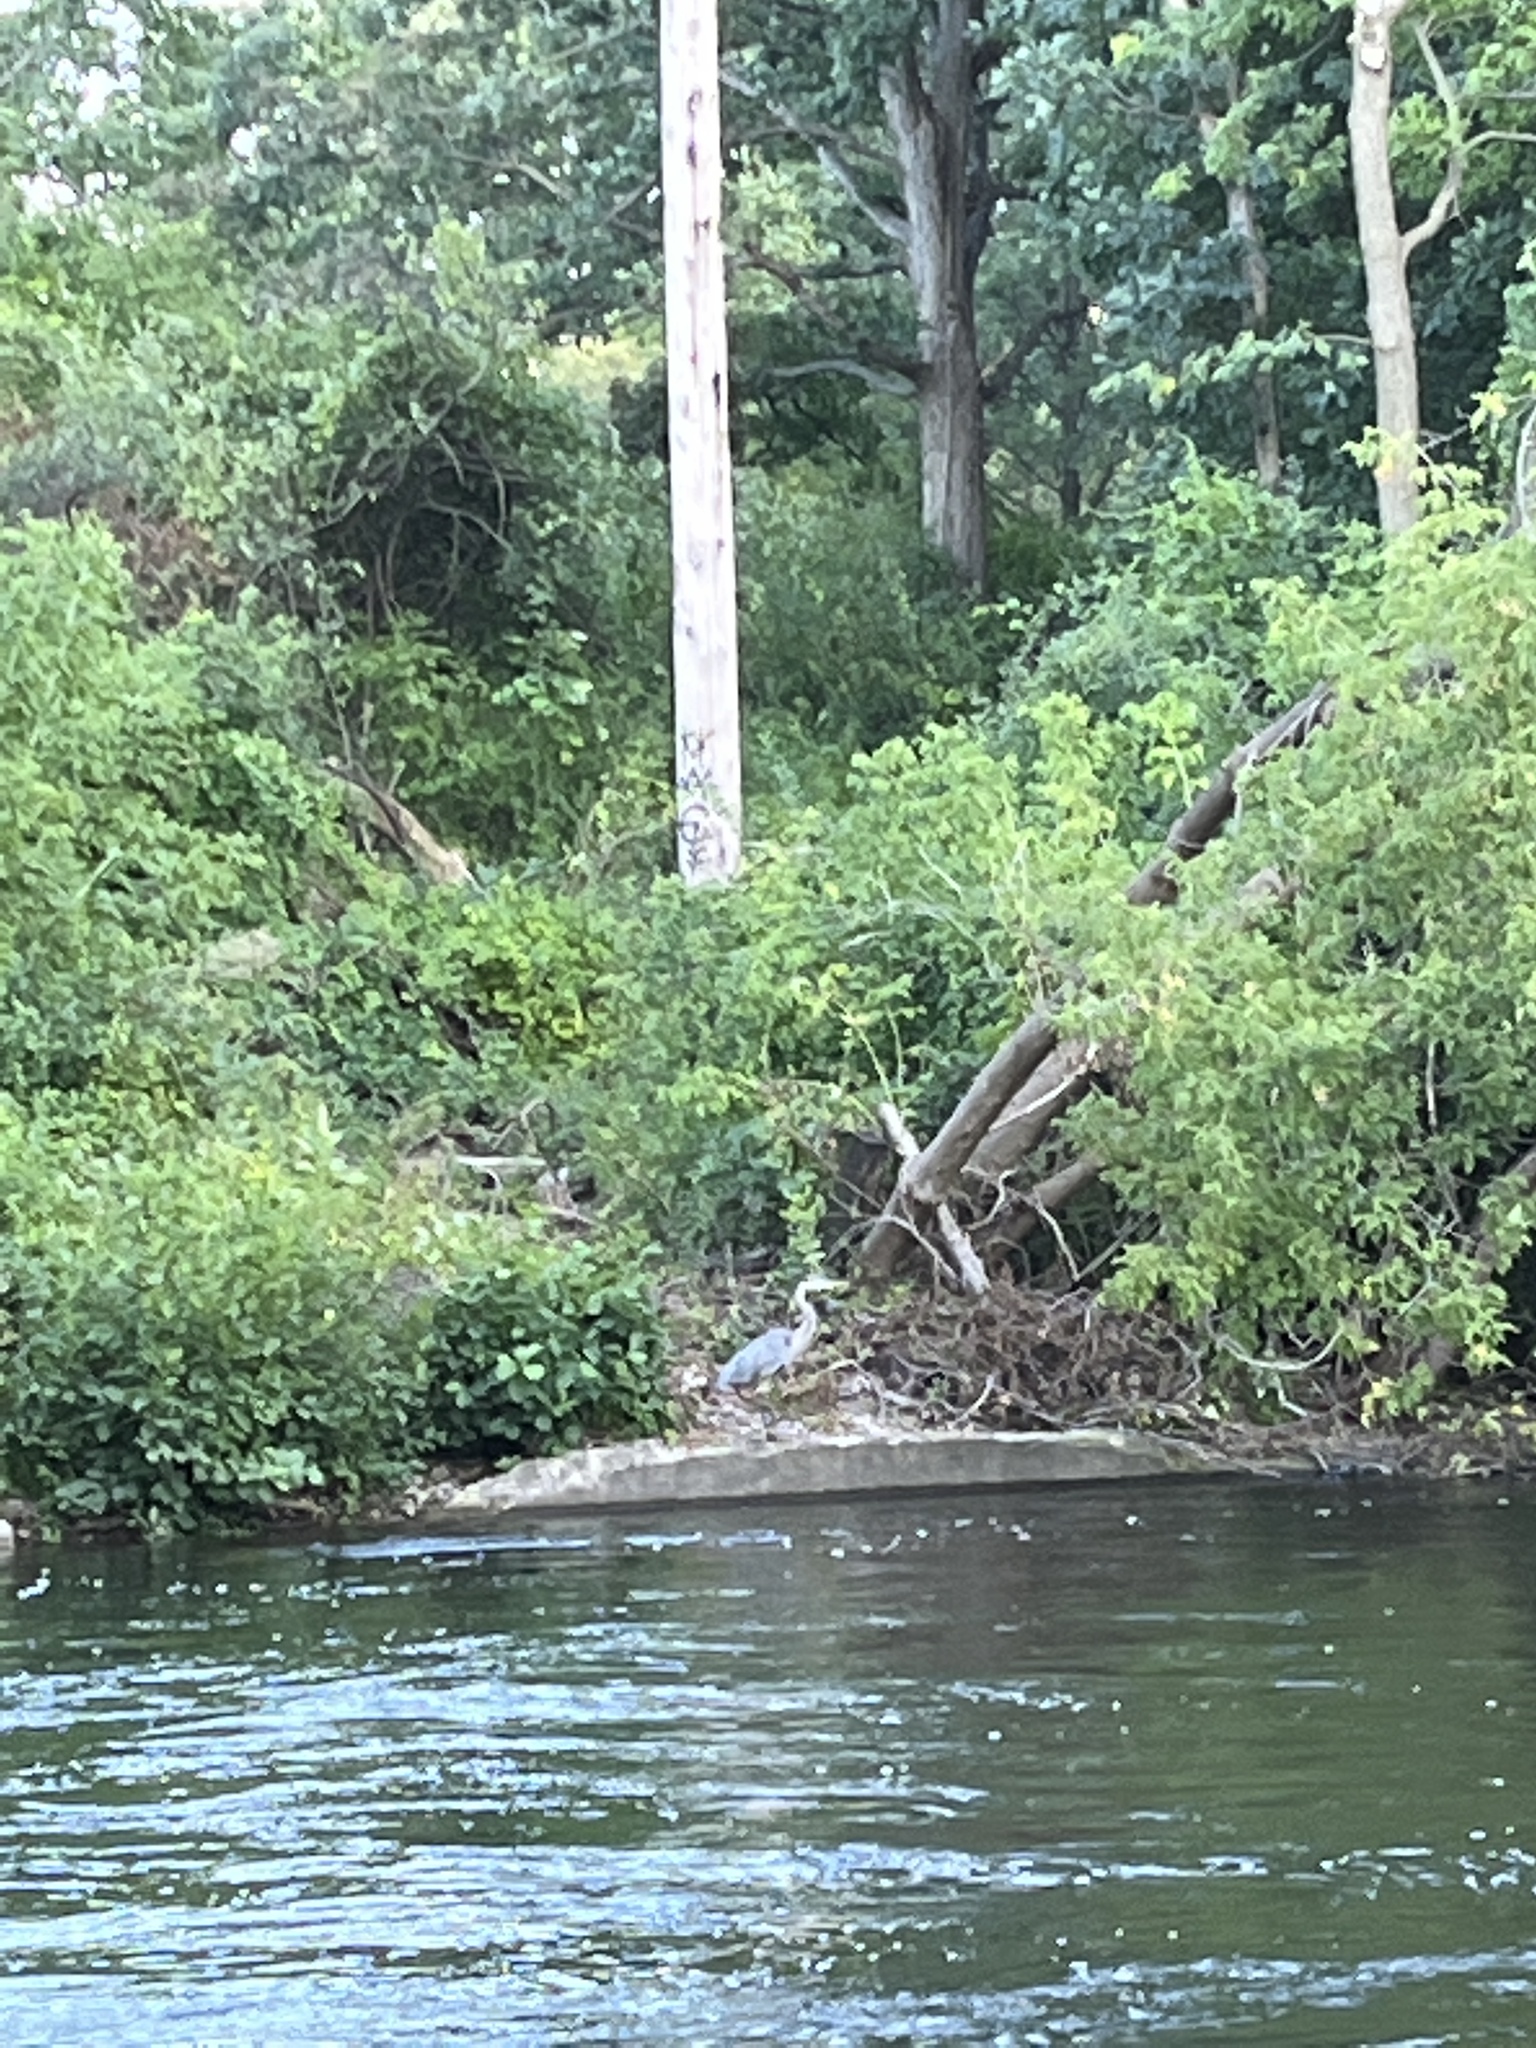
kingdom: Animalia
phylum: Chordata
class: Aves
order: Pelecaniformes
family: Ardeidae
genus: Ardea
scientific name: Ardea herodias
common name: Great blue heron
